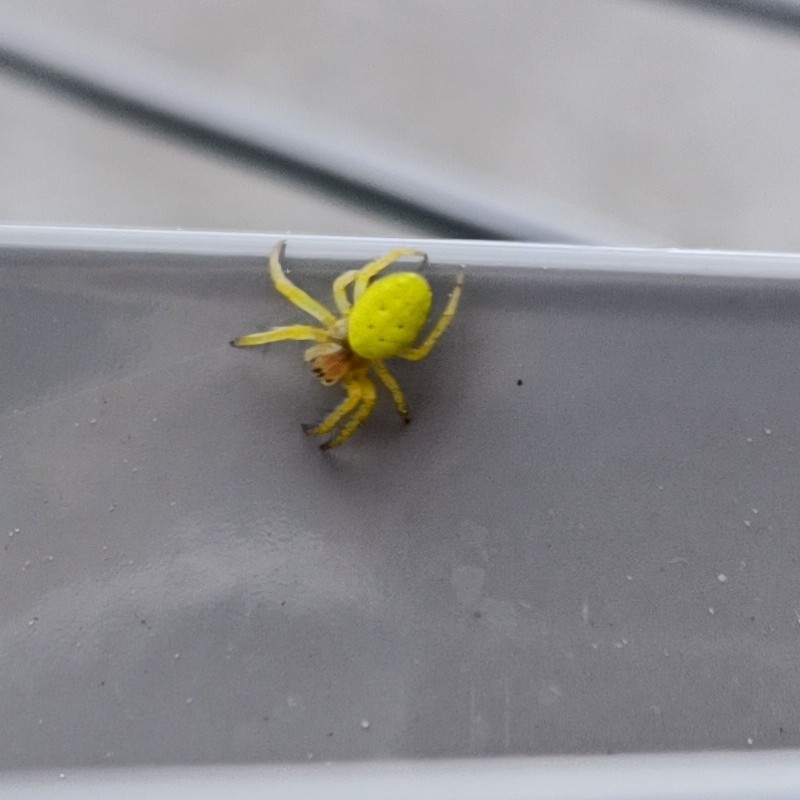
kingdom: Animalia
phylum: Arthropoda
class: Arachnida
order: Araneae
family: Araneidae
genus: Araniella
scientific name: Araniella cucurbitina
